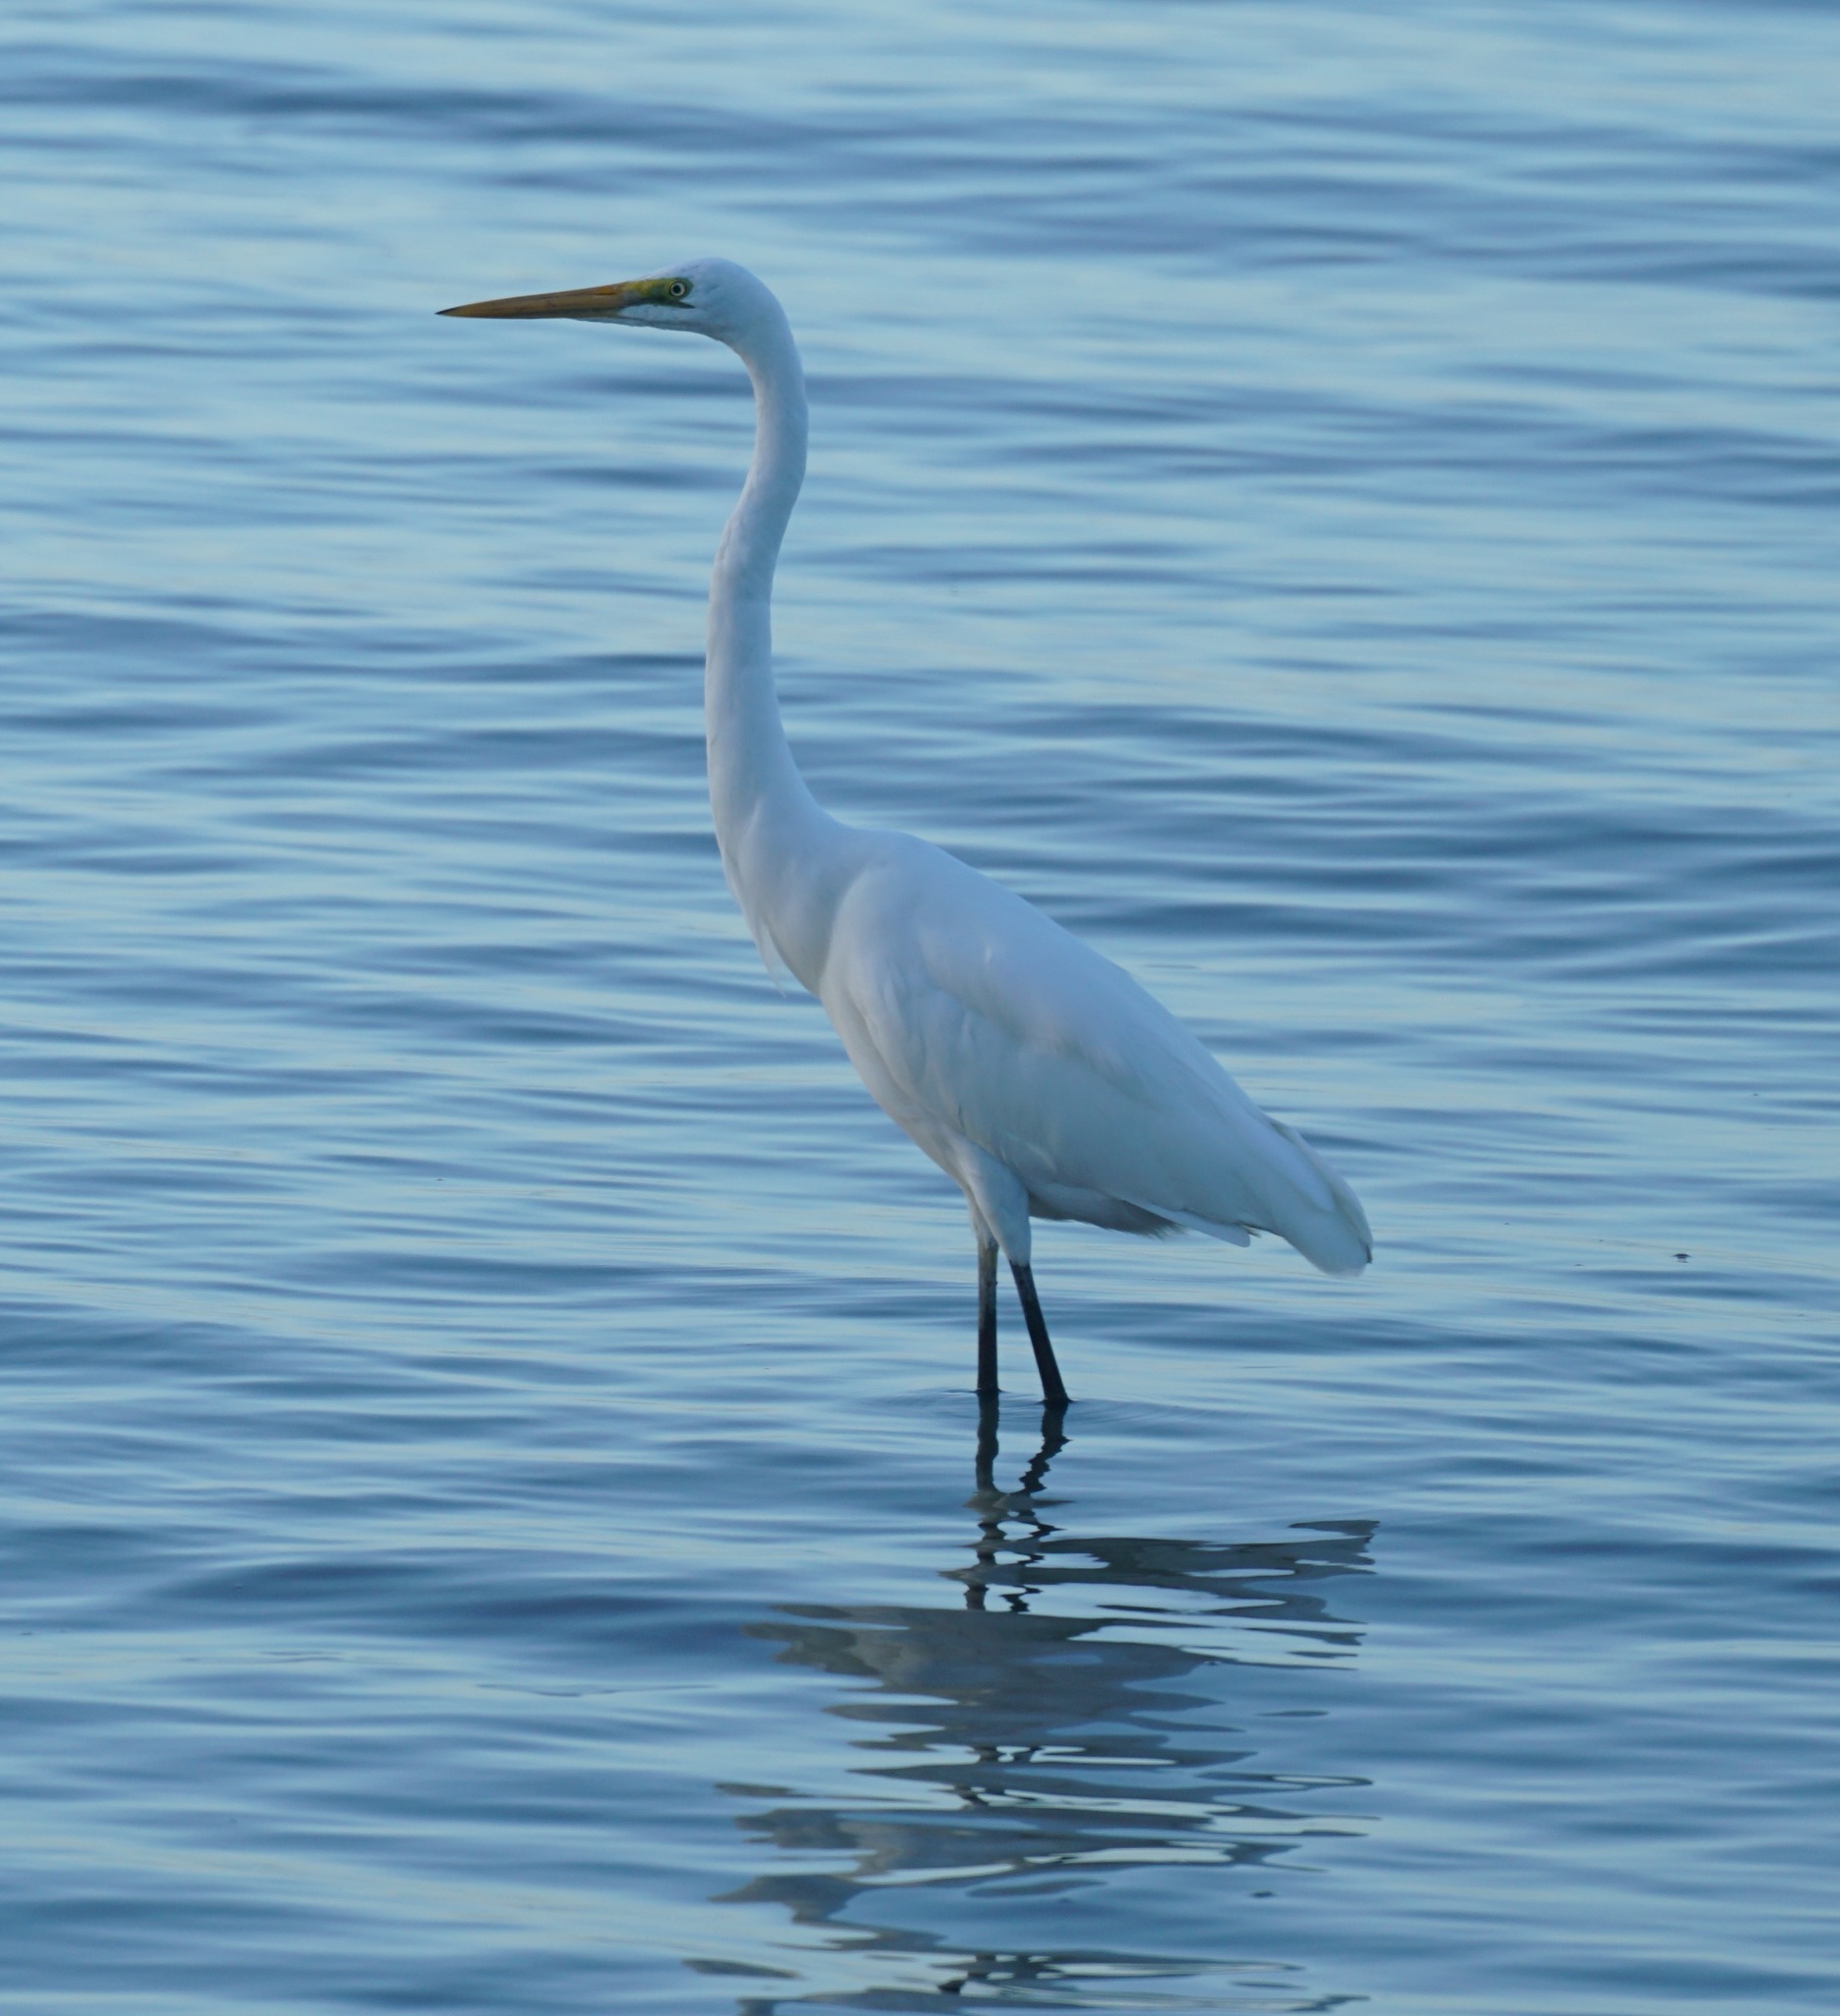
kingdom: Animalia
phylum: Chordata
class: Aves
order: Pelecaniformes
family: Ardeidae
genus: Ardea
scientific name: Ardea modesta
